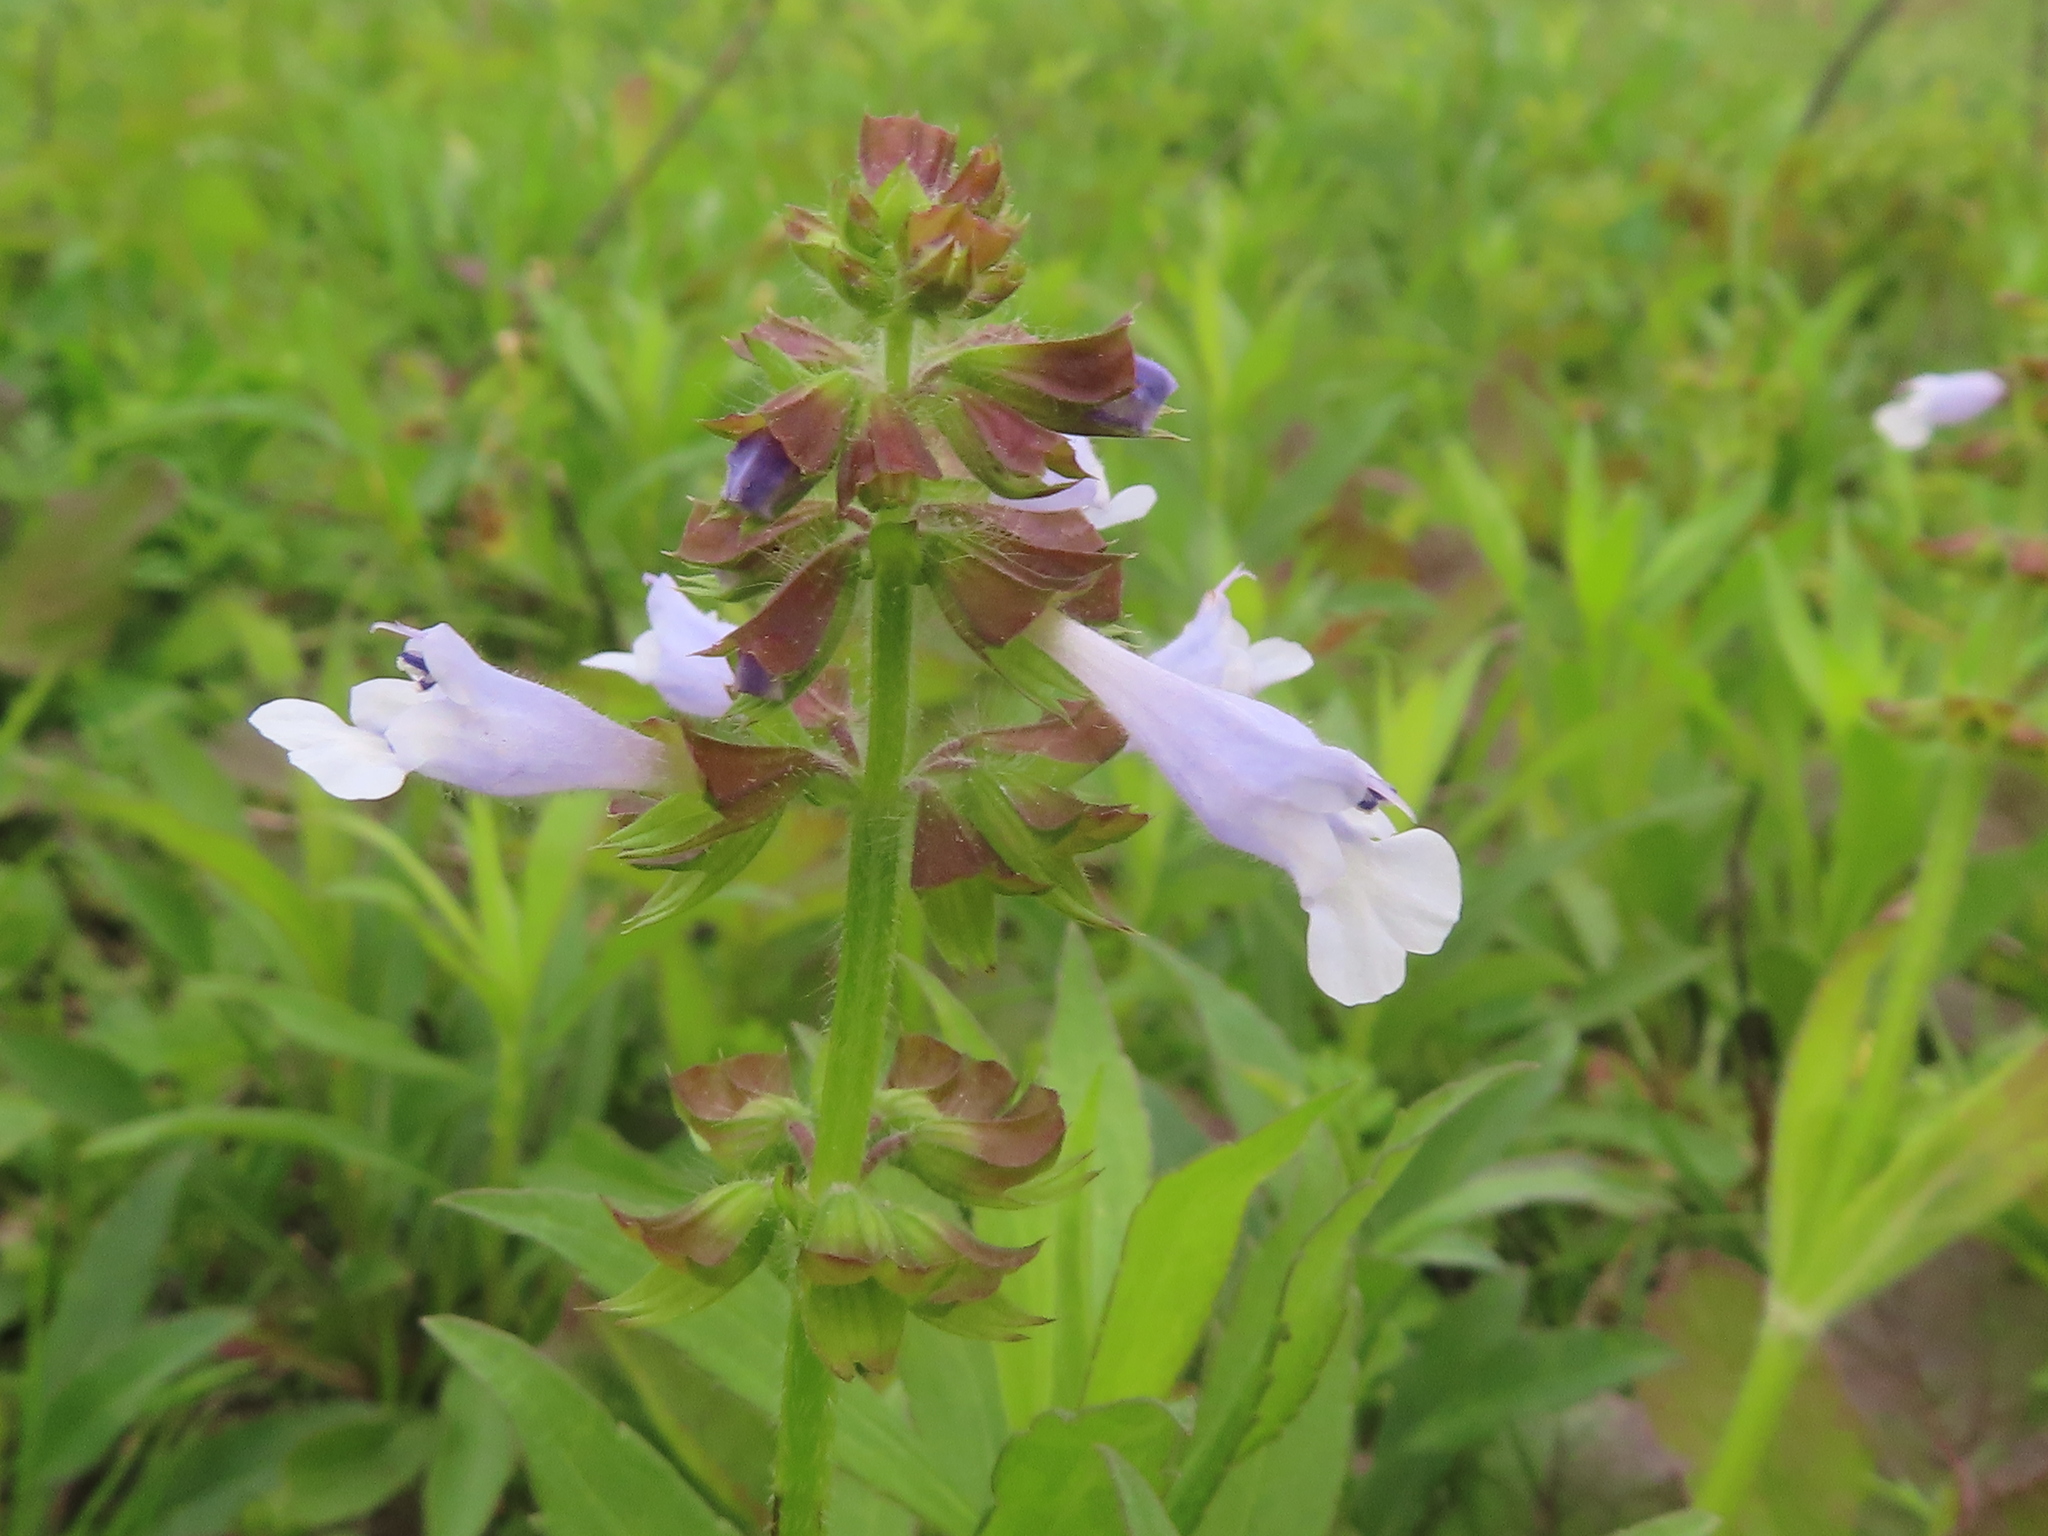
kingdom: Plantae
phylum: Tracheophyta
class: Magnoliopsida
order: Lamiales
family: Lamiaceae
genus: Salvia
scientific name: Salvia lyrata
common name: Cancerweed
